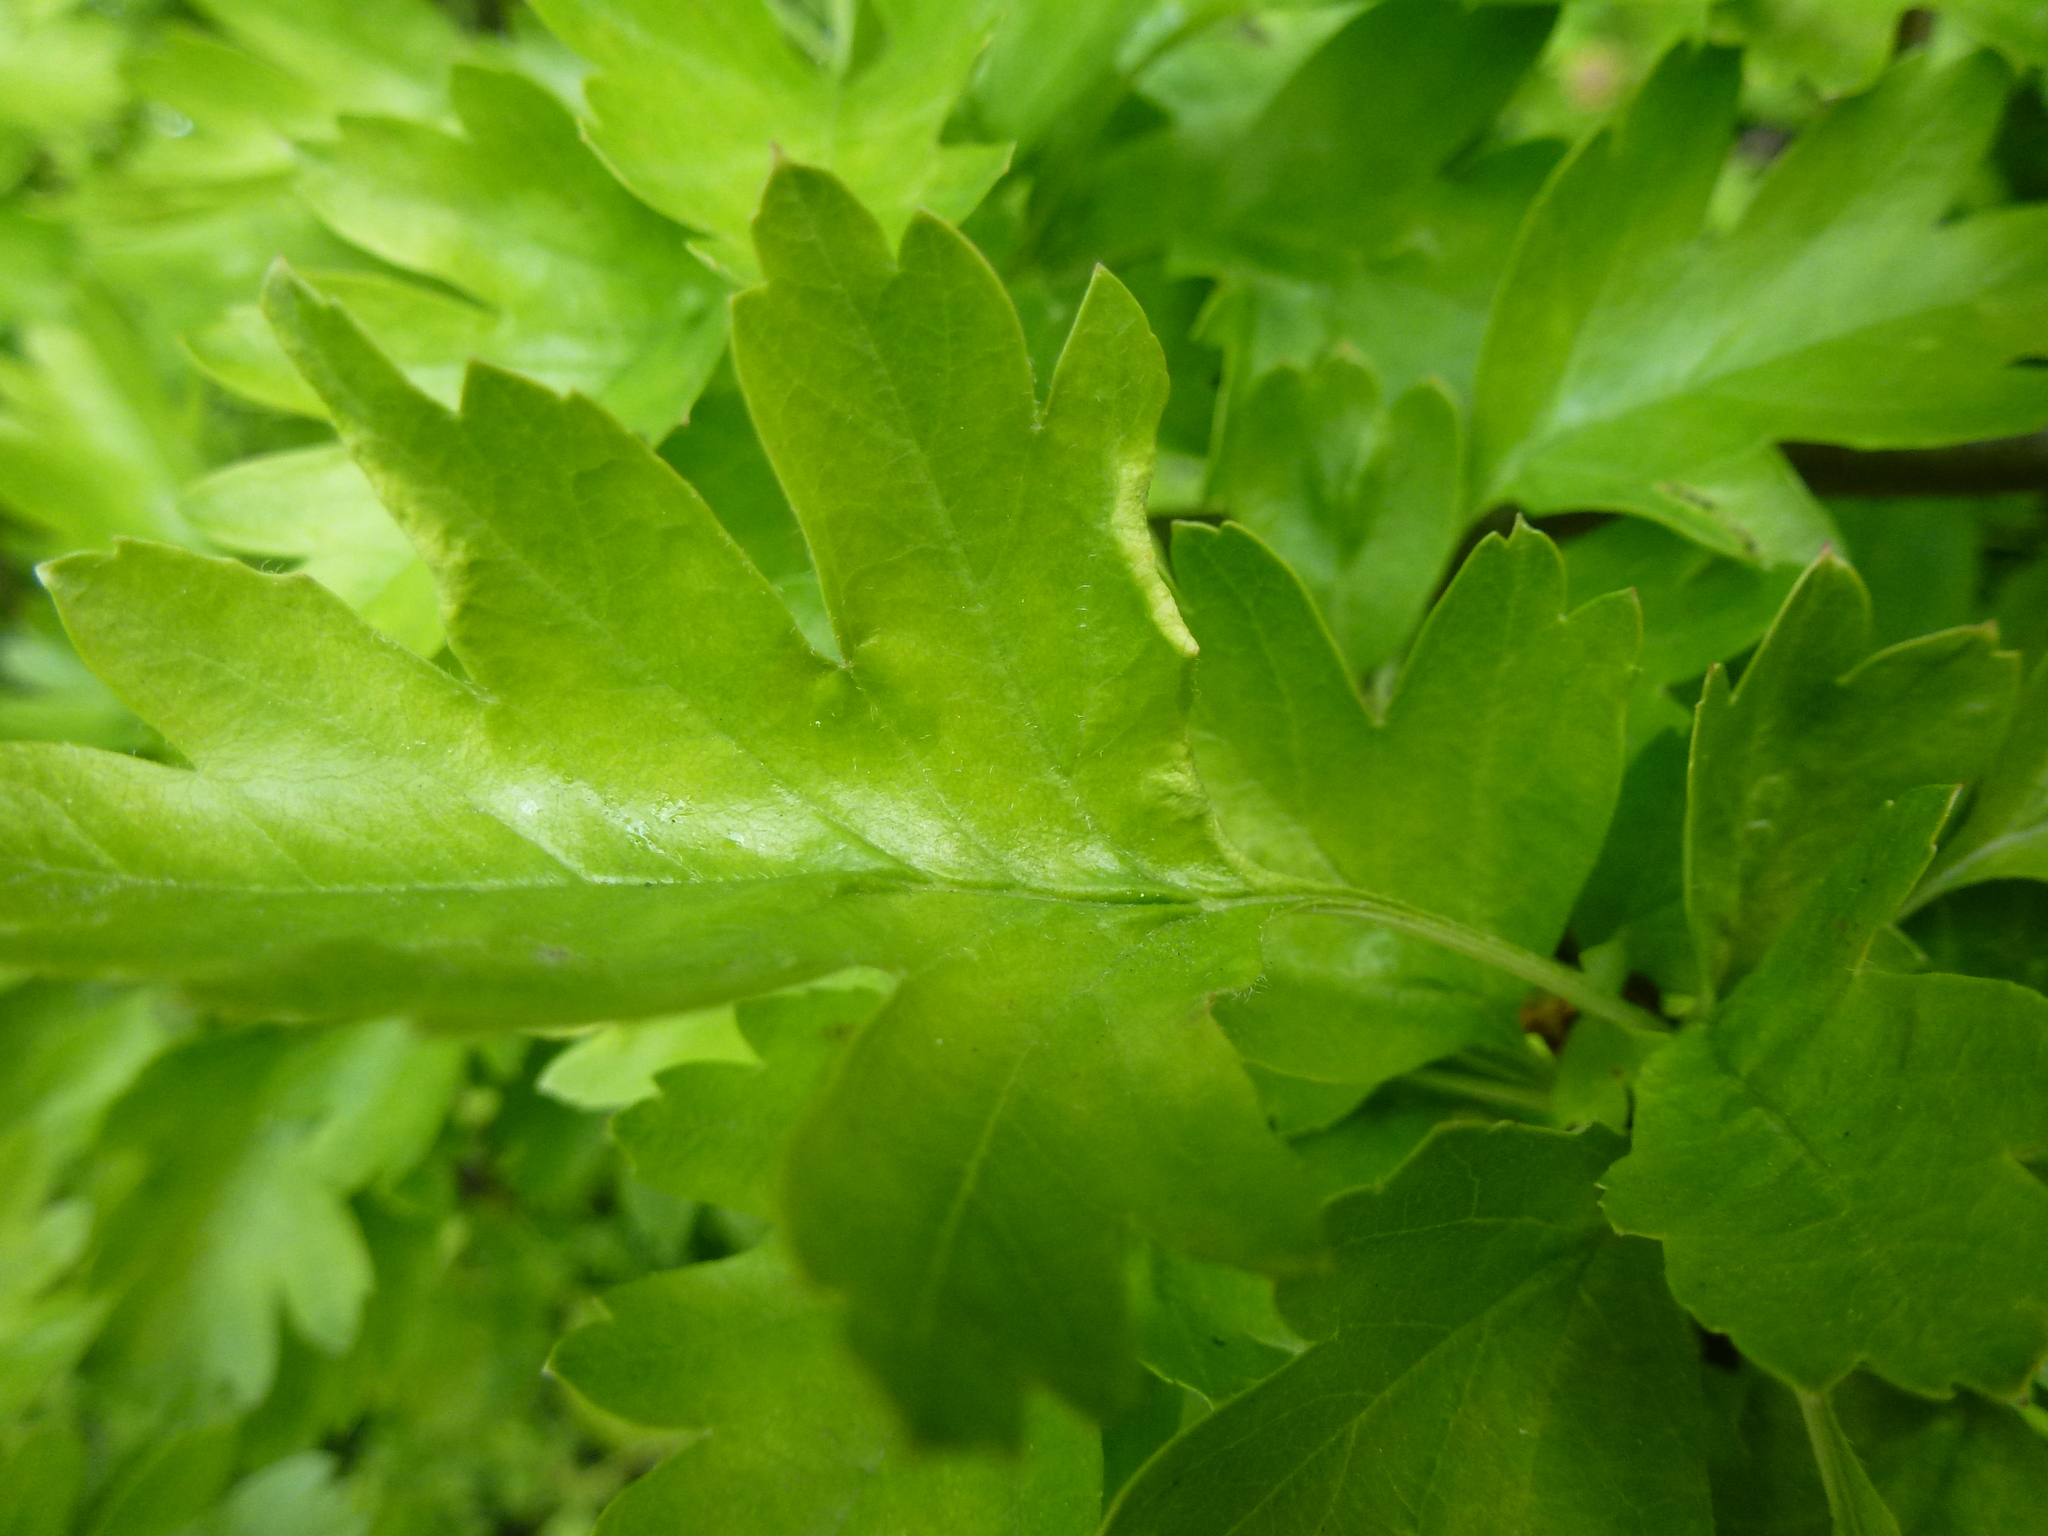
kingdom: Animalia
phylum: Arthropoda
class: Arachnida
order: Trombidiformes
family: Eriophyidae
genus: Phyllocoptes
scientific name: Phyllocoptes goniothorax
